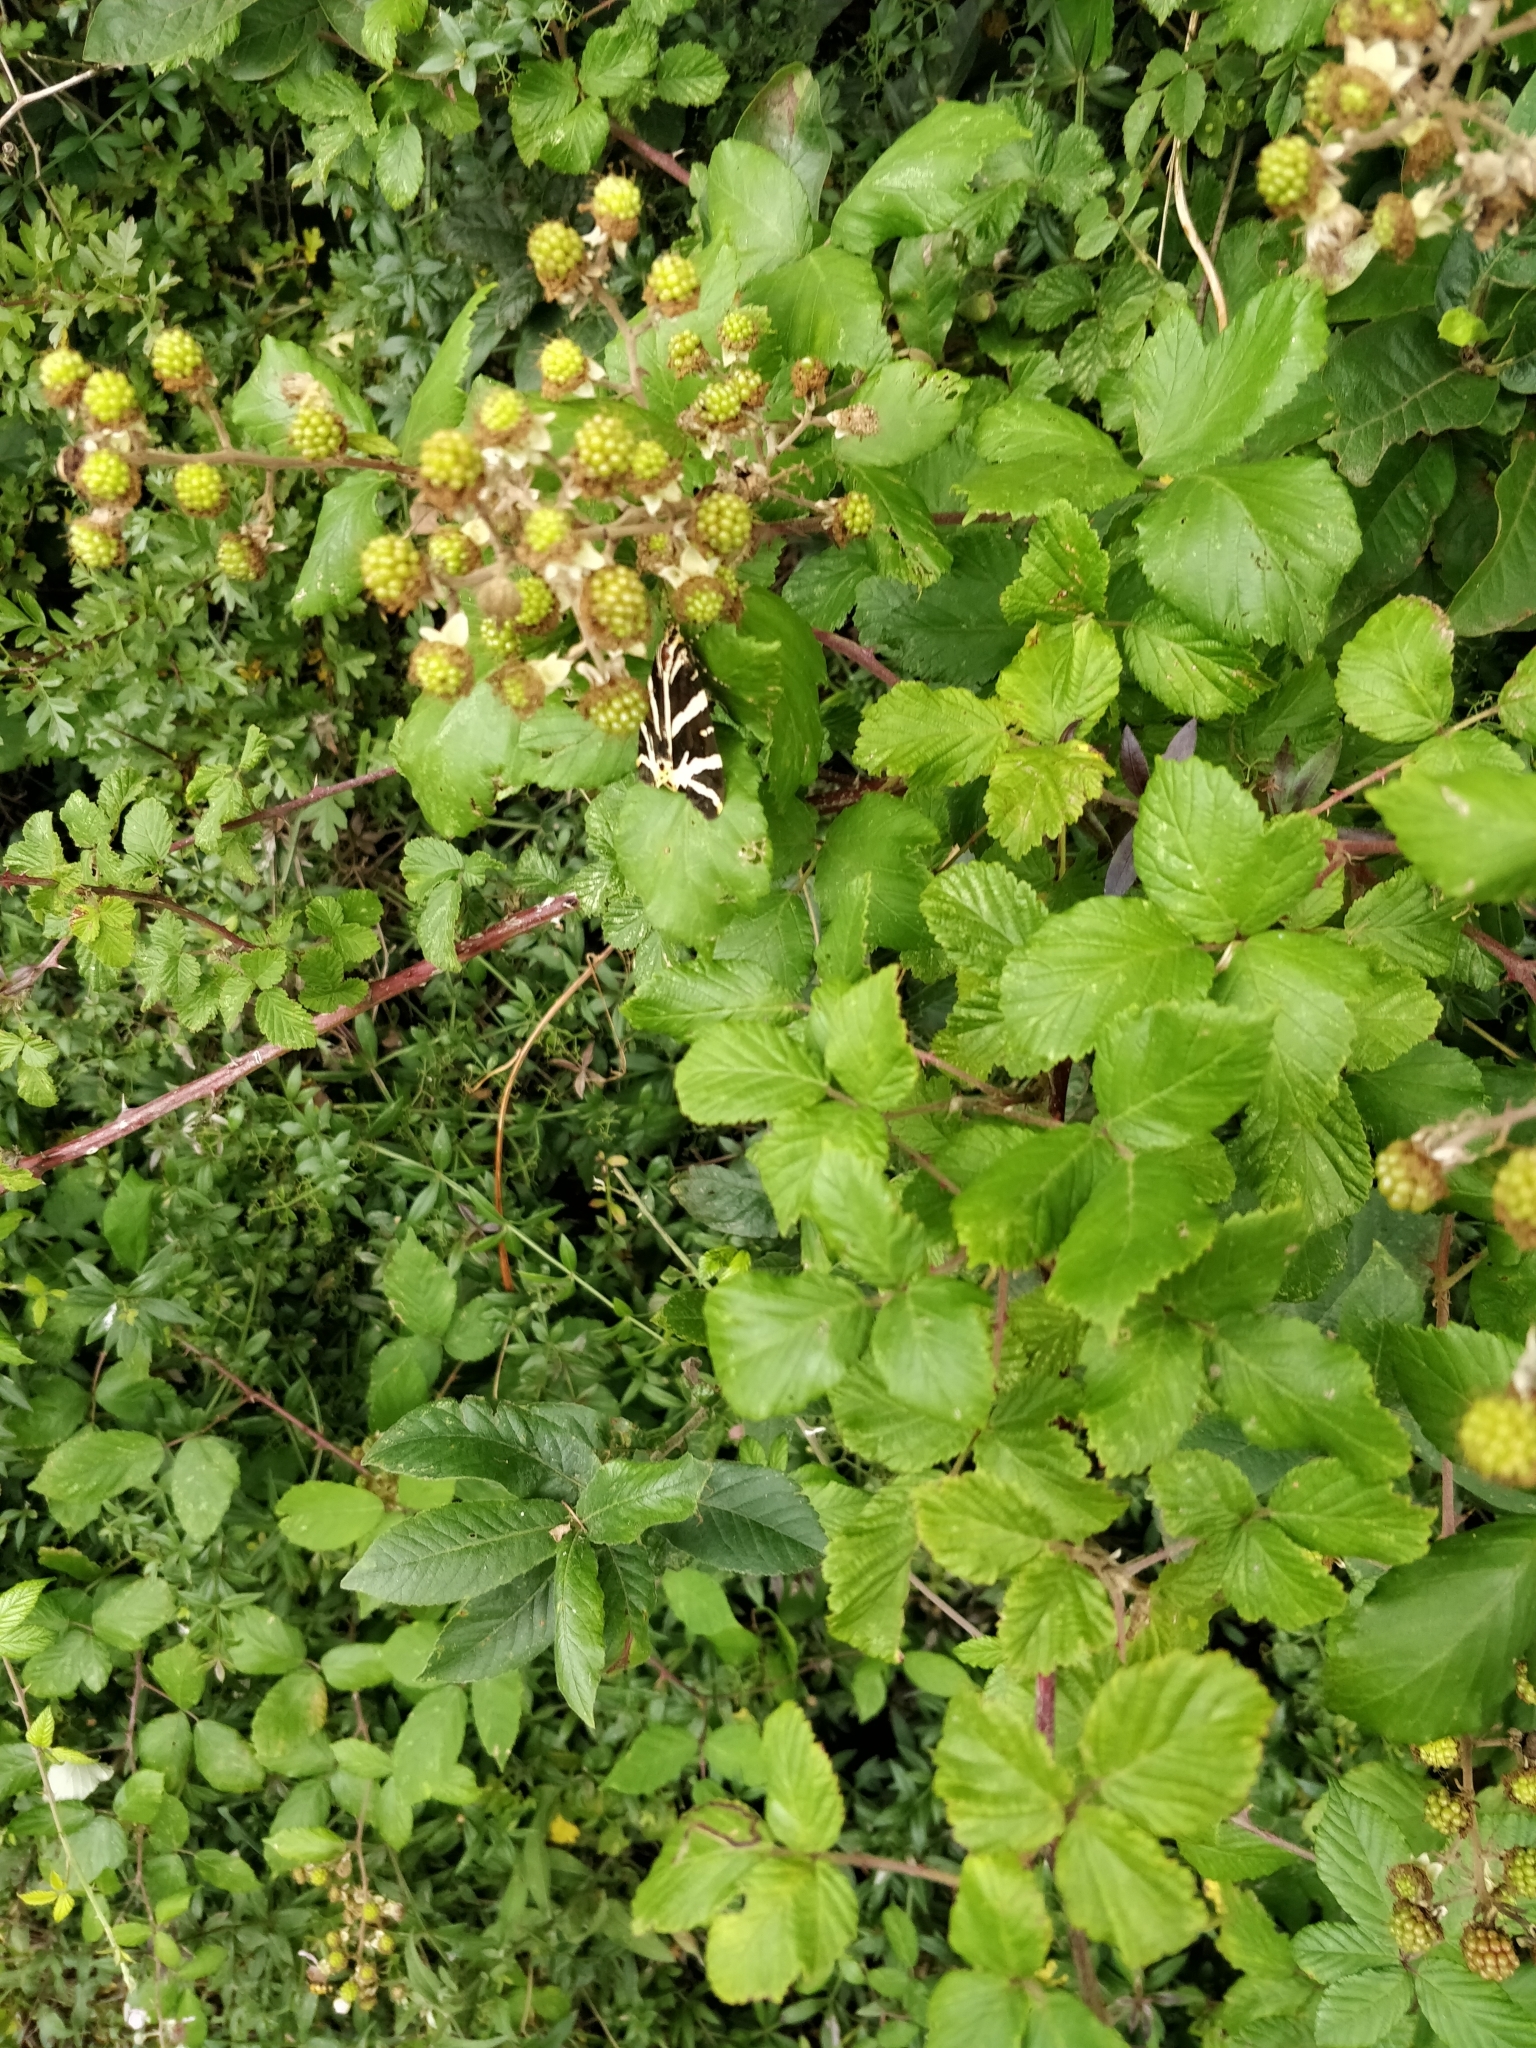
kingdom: Animalia
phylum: Arthropoda
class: Insecta
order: Lepidoptera
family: Erebidae
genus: Euplagia
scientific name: Euplagia quadripunctaria
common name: Jersey tiger
